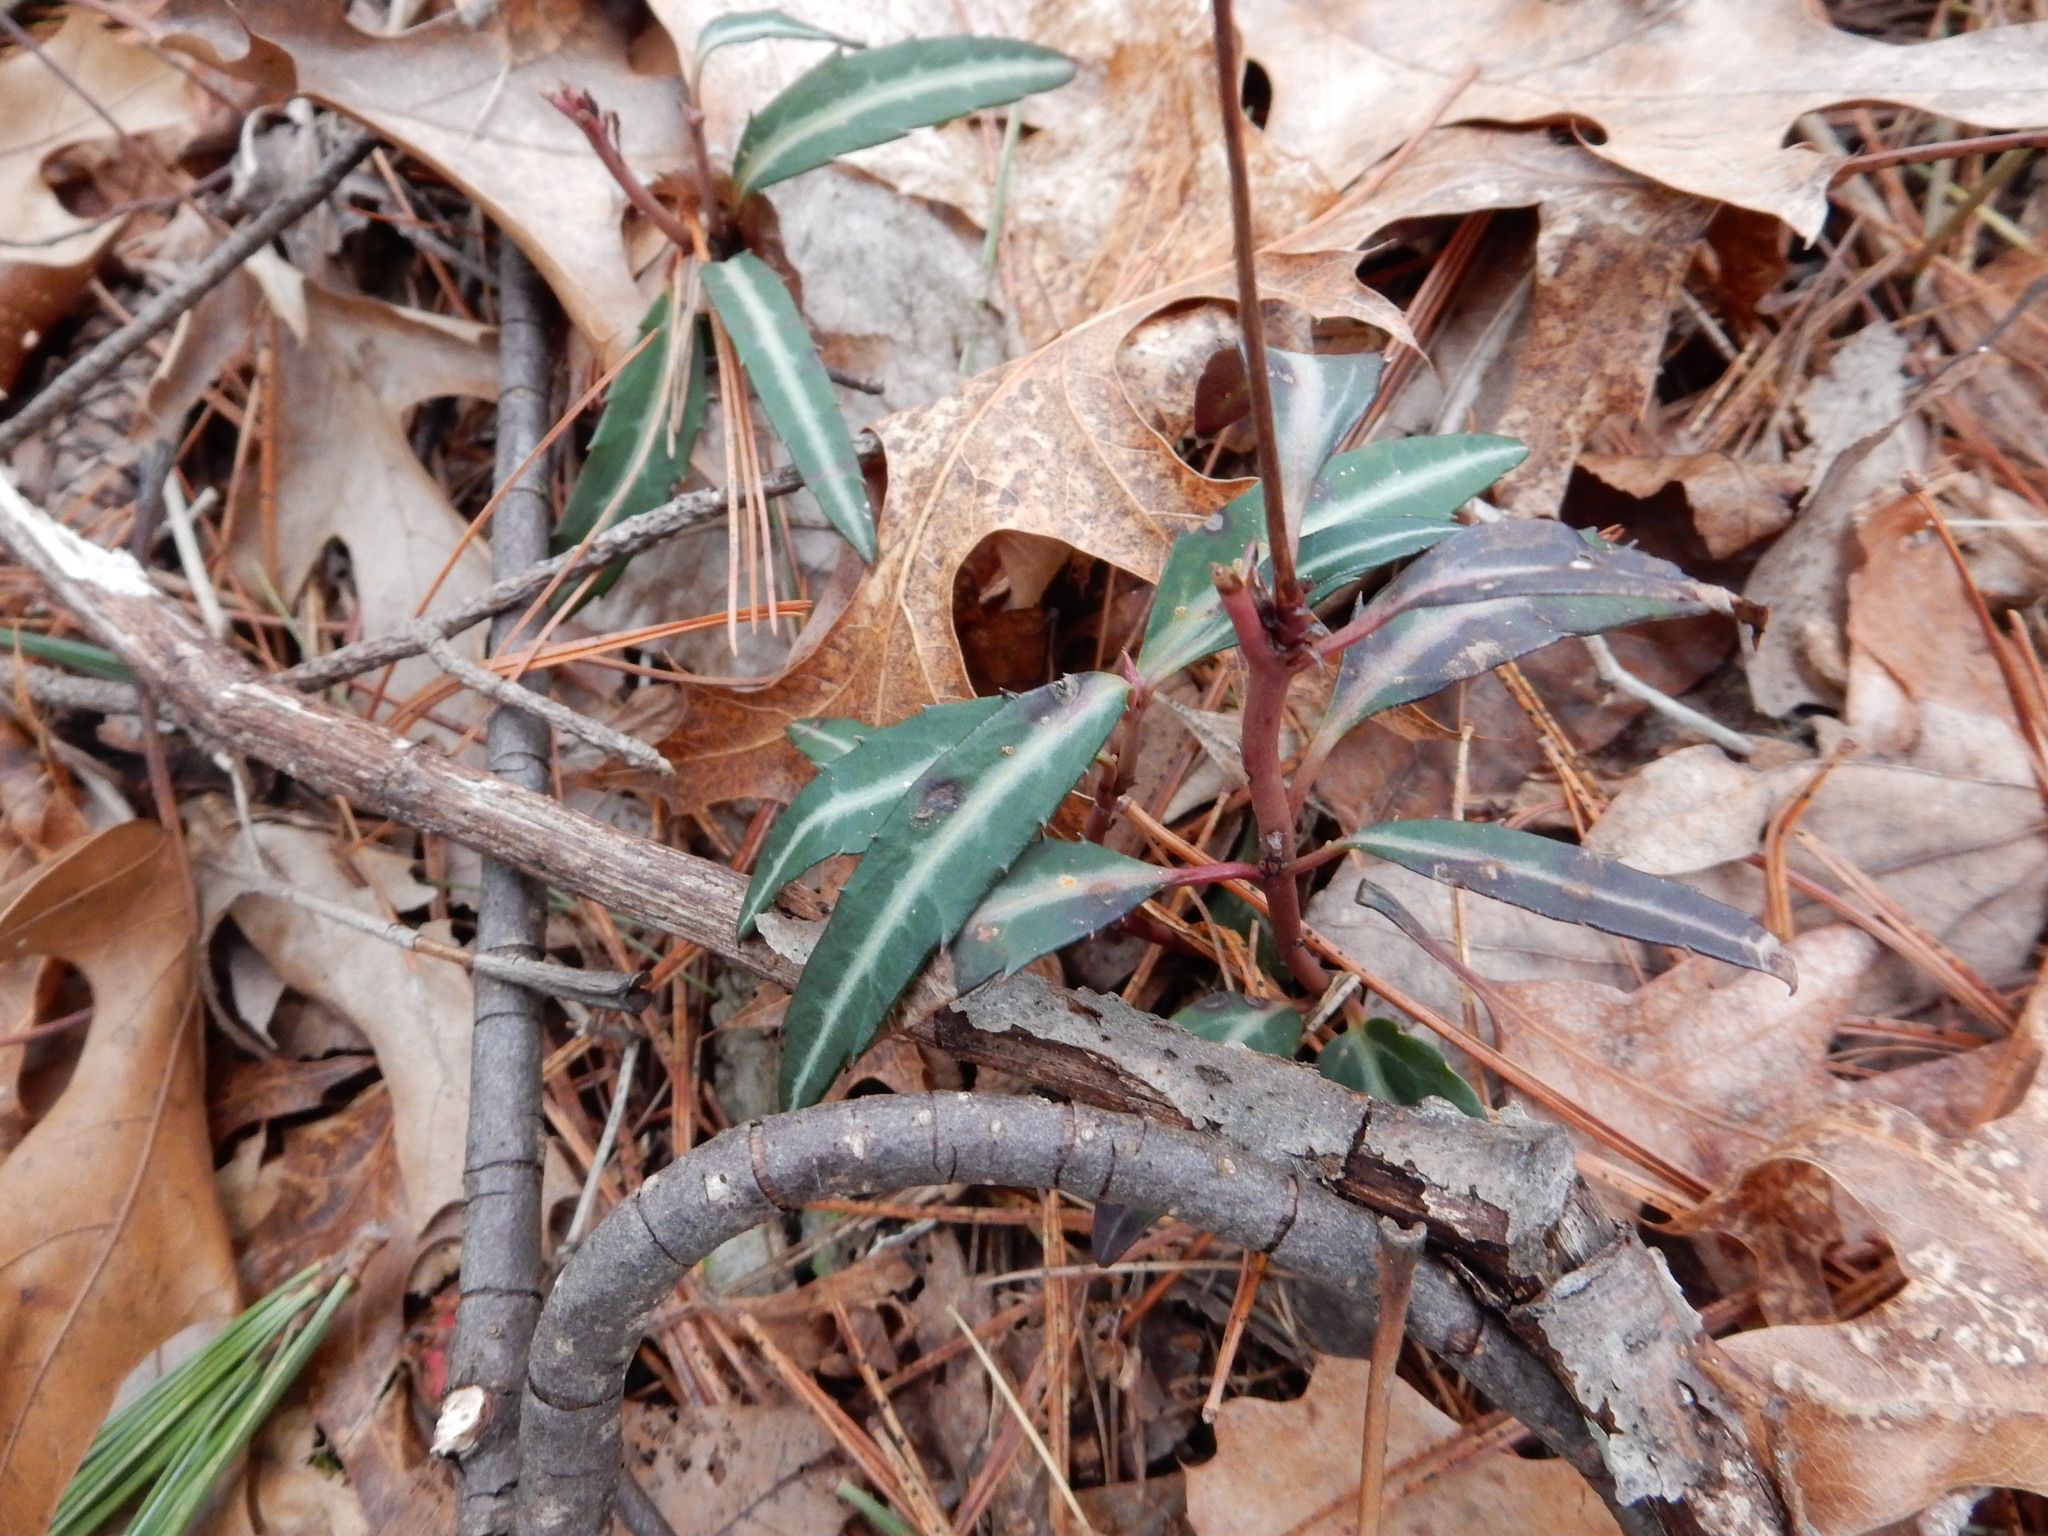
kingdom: Plantae
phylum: Tracheophyta
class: Magnoliopsida
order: Ericales
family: Ericaceae
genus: Chimaphila
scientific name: Chimaphila maculata
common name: Spotted pipsissewa
